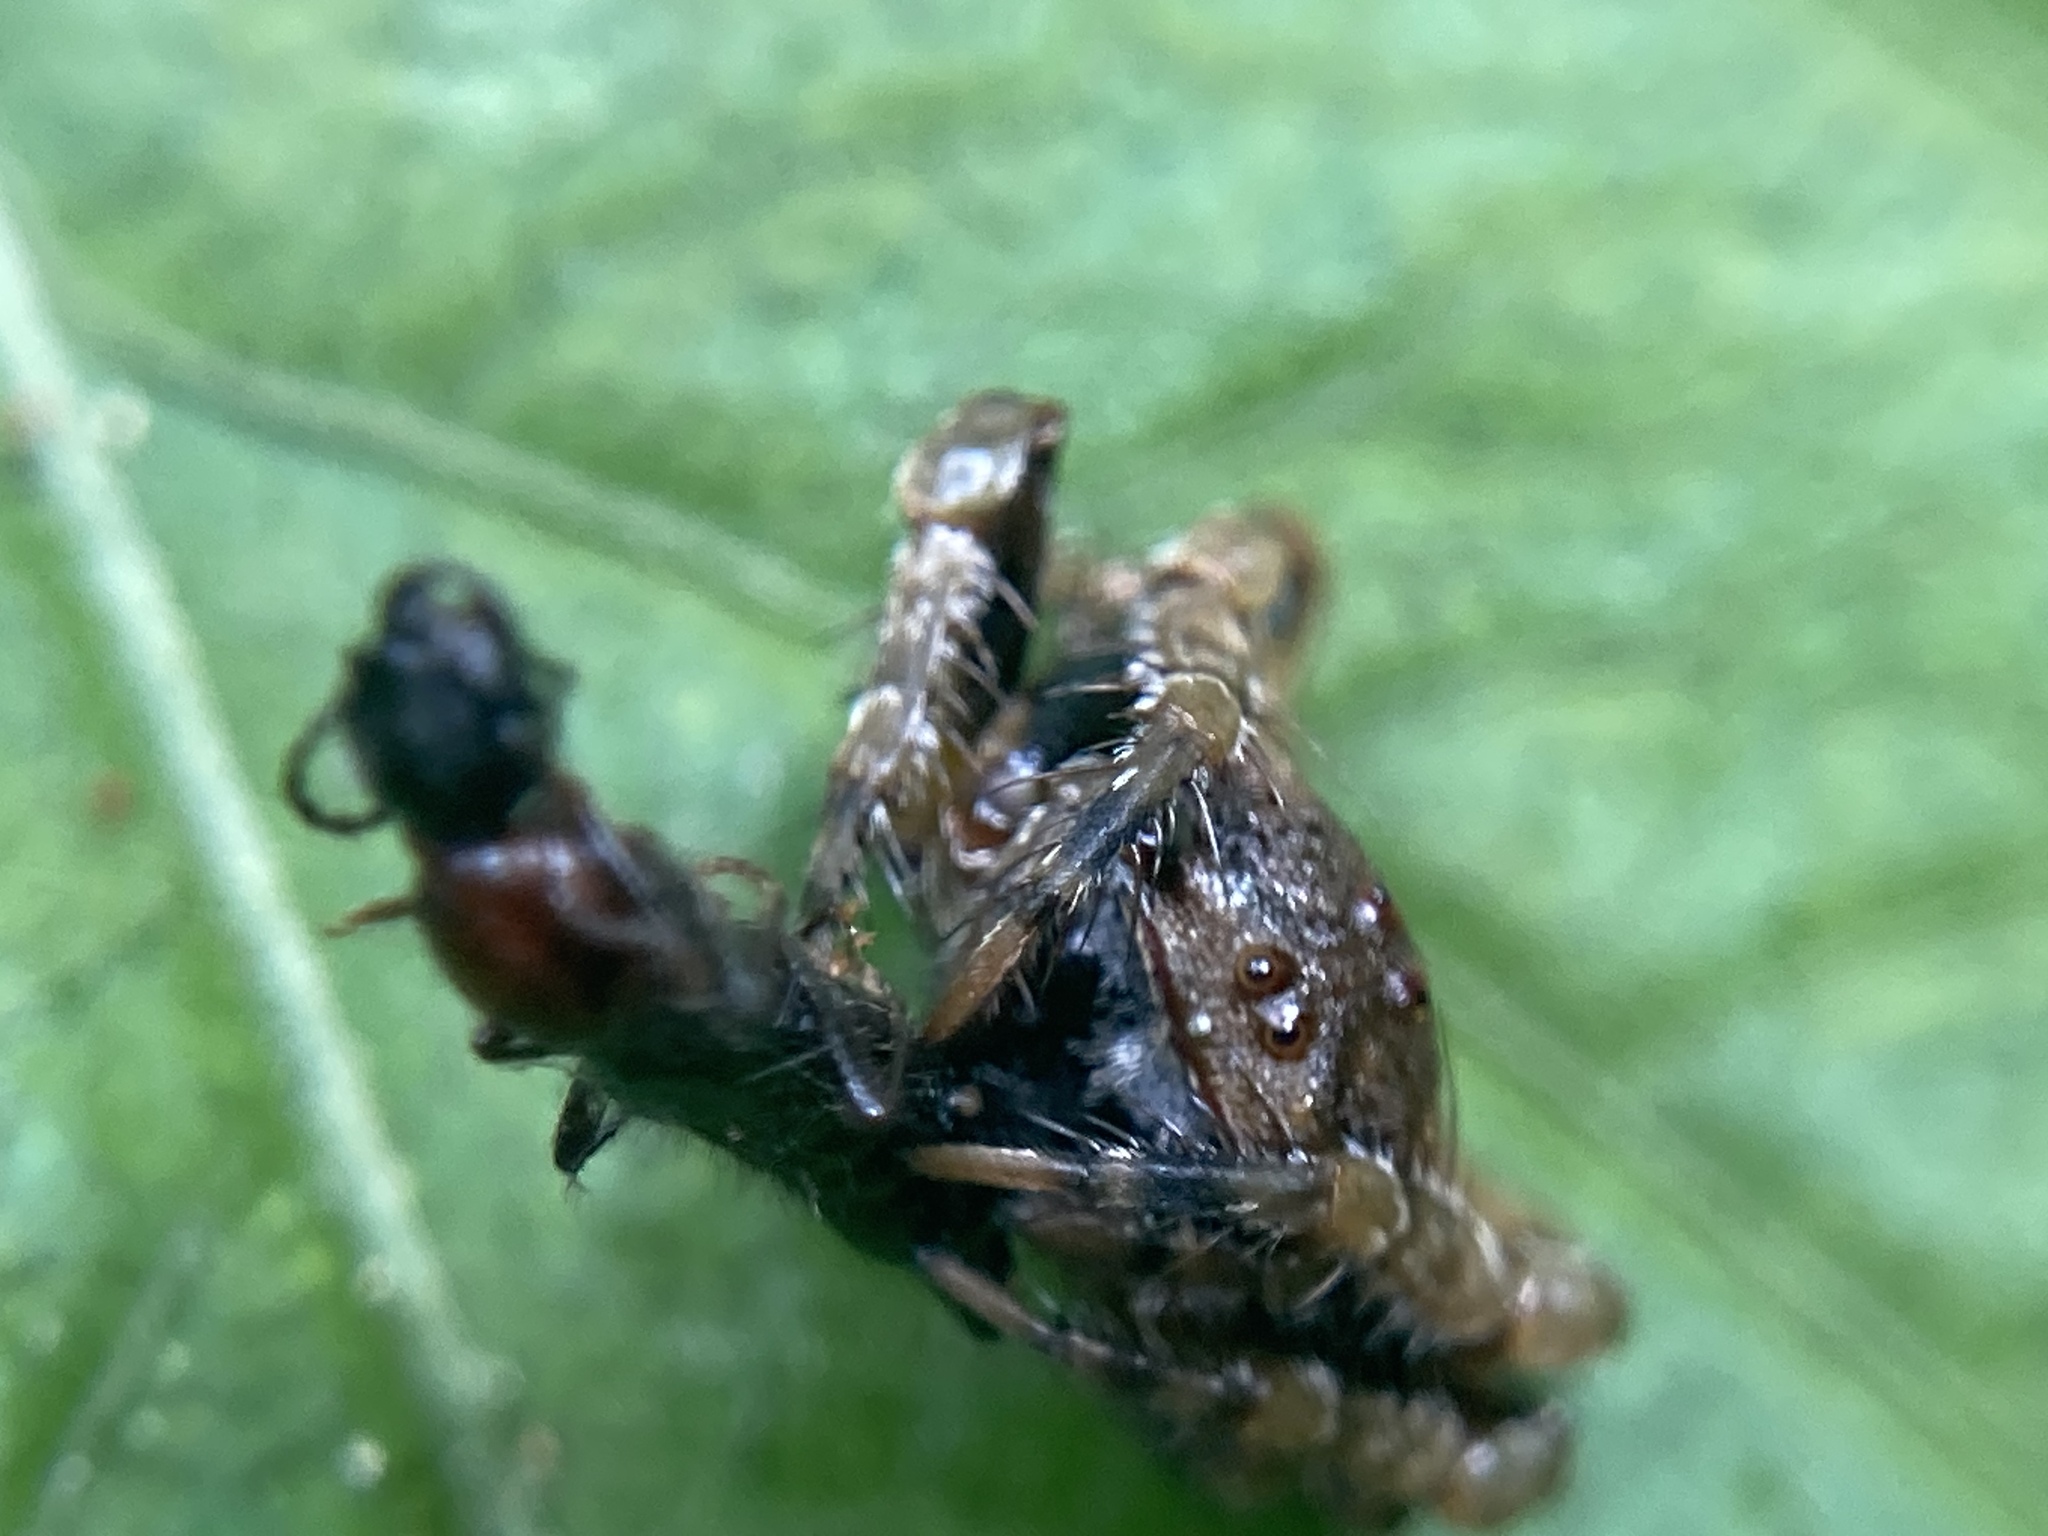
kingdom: Animalia
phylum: Arthropoda
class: Arachnida
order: Araneae
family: Arkyidae
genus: Arkys
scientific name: Arkys curtulus
